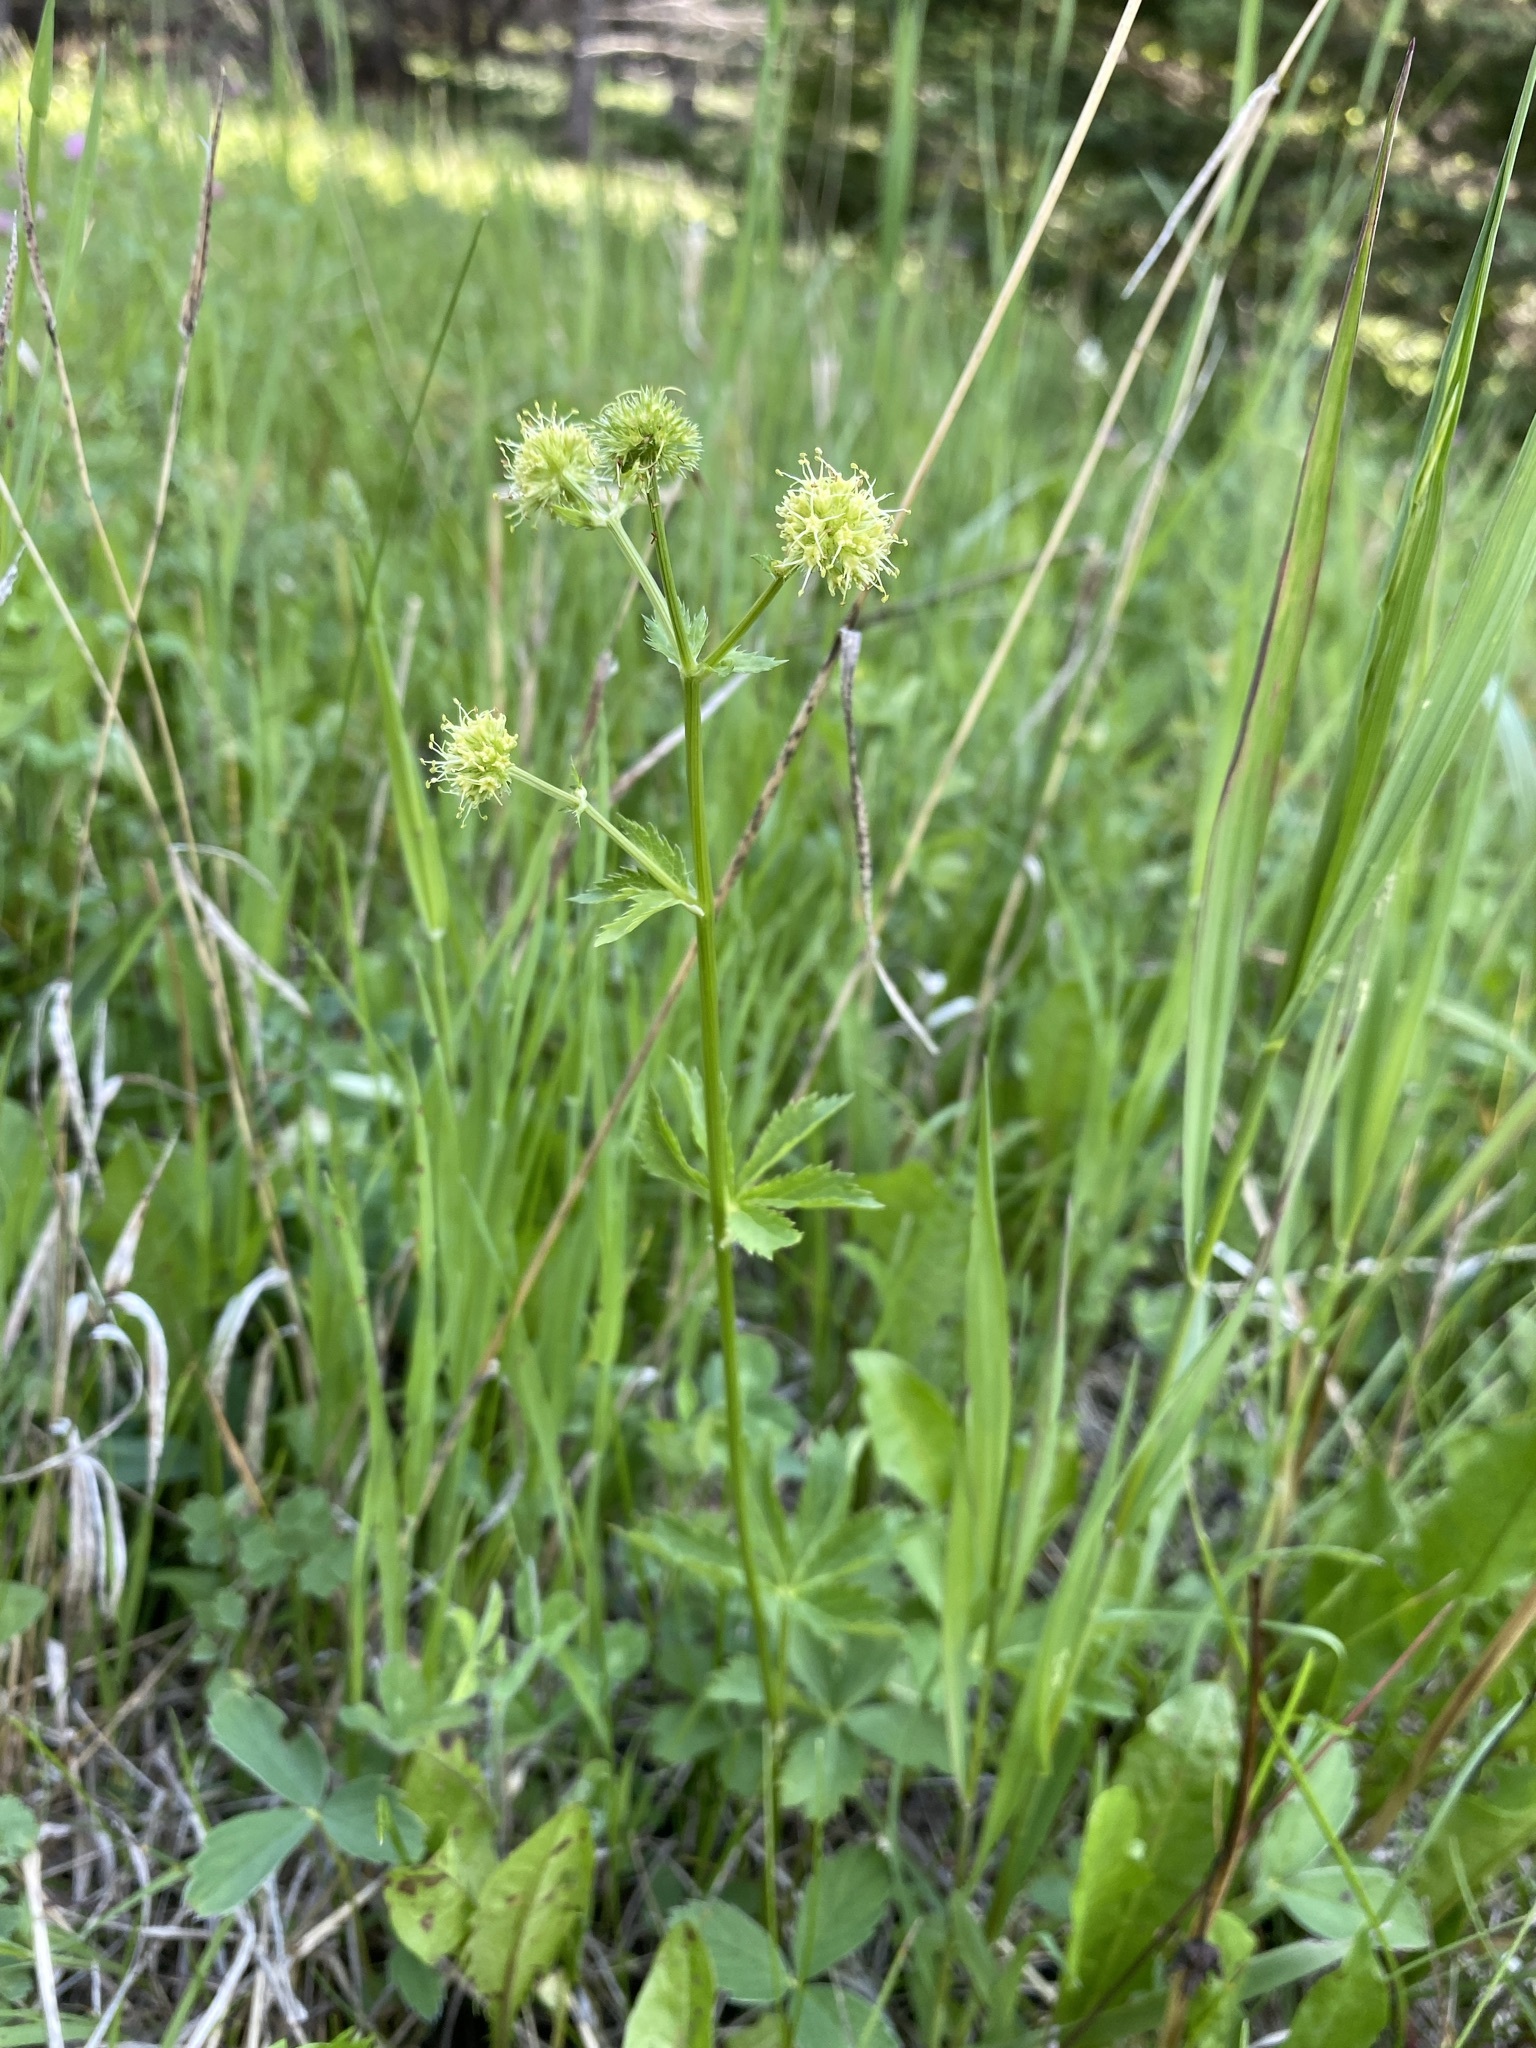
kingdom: Plantae
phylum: Tracheophyta
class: Magnoliopsida
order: Apiales
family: Apiaceae
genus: Sanicula
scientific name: Sanicula marilandica
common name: Black snakeroot
